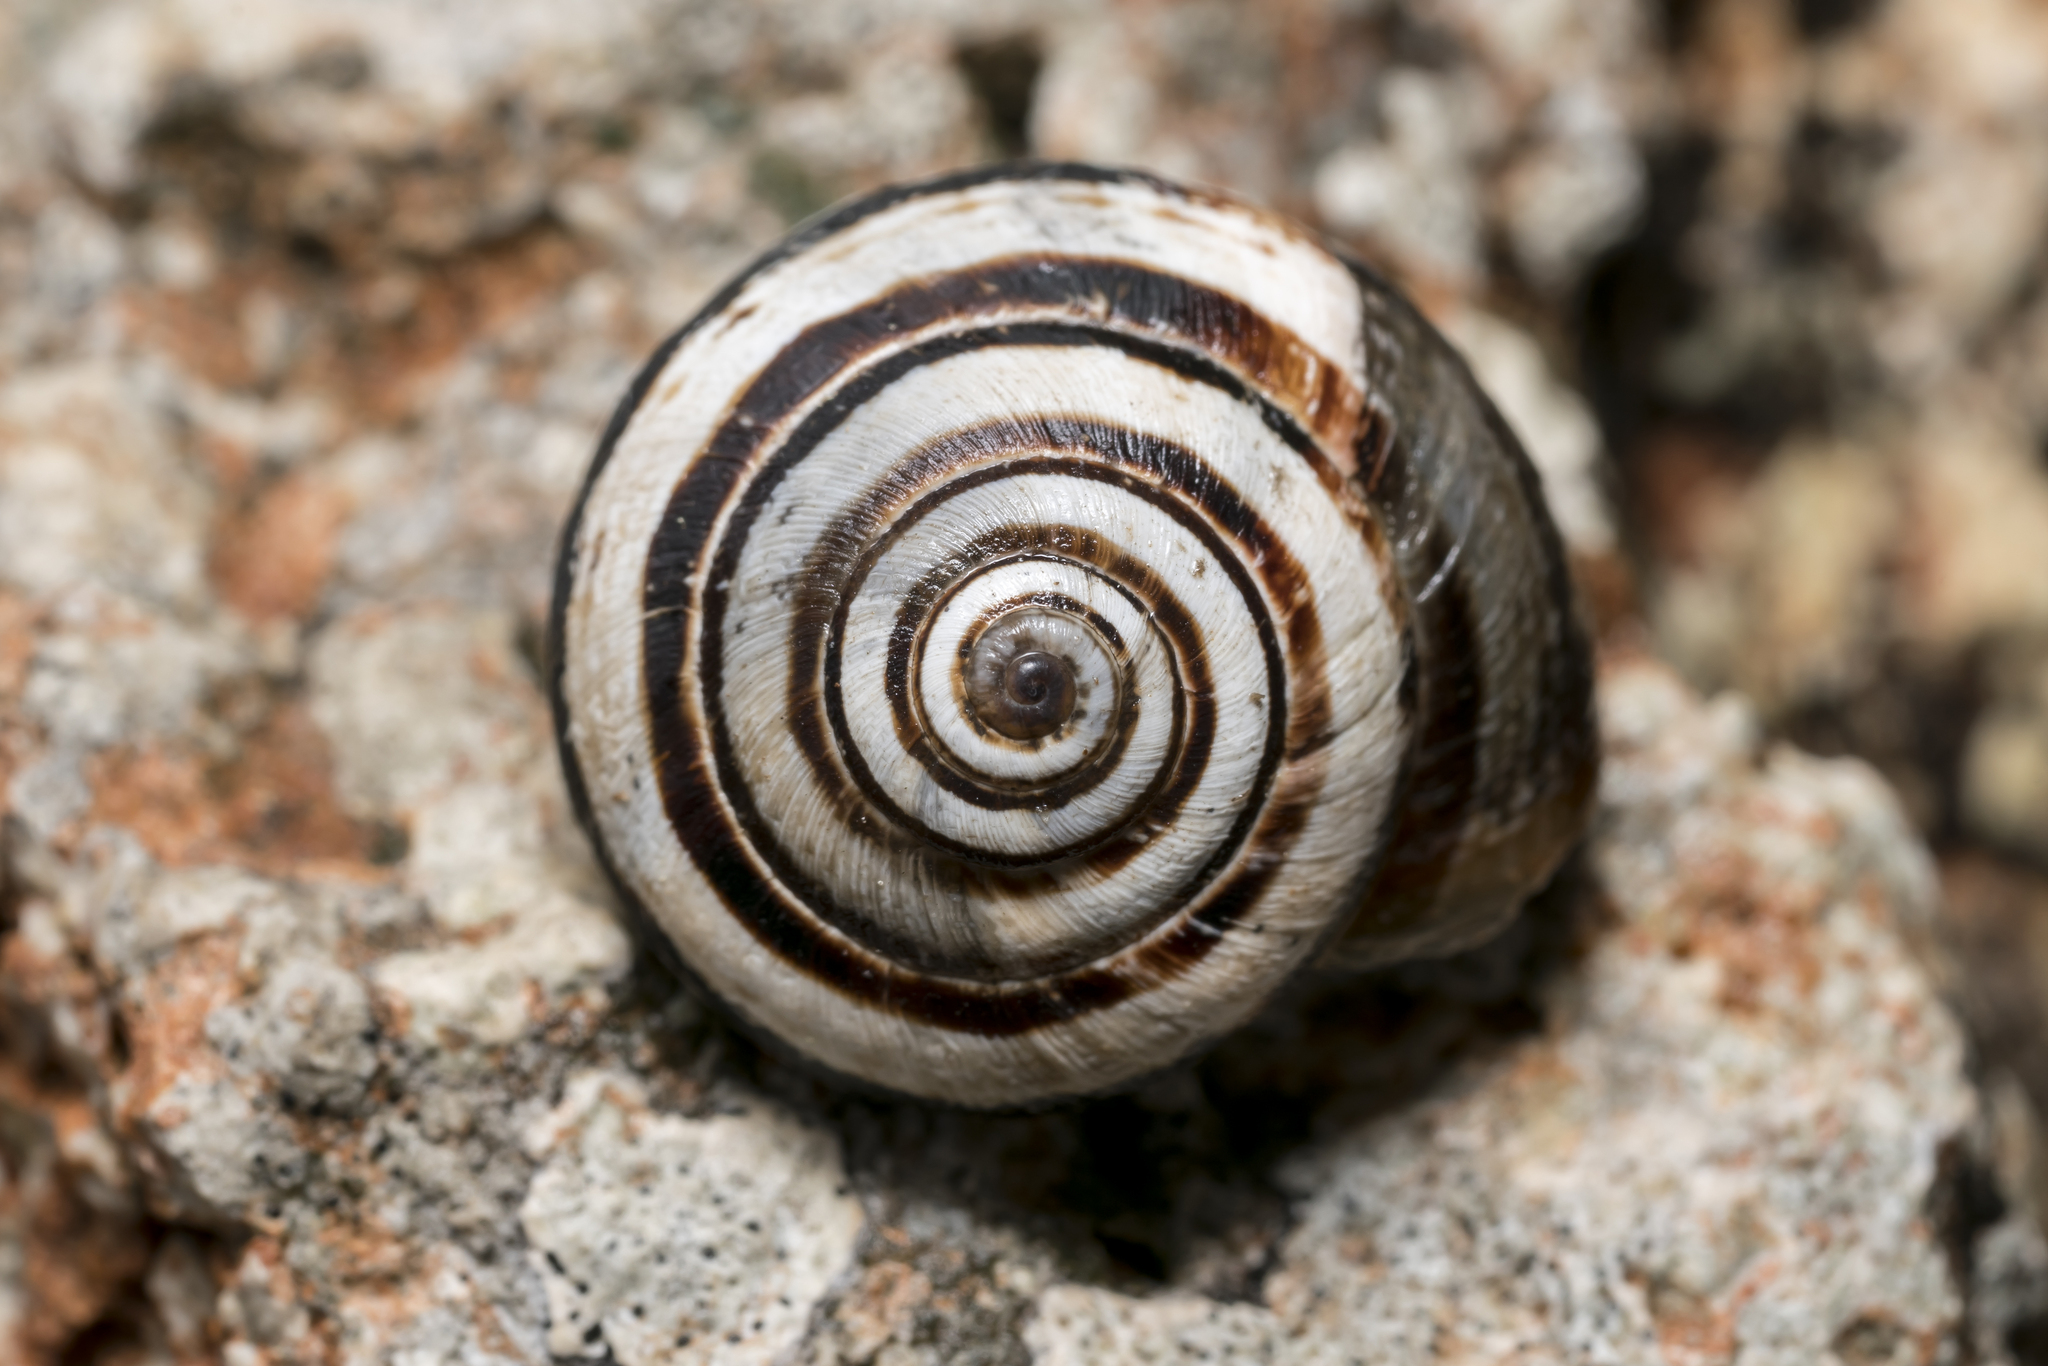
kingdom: Animalia
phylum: Mollusca
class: Gastropoda
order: Stylommatophora
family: Geomitridae
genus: Xerocrassa
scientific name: Xerocrassa cretica
